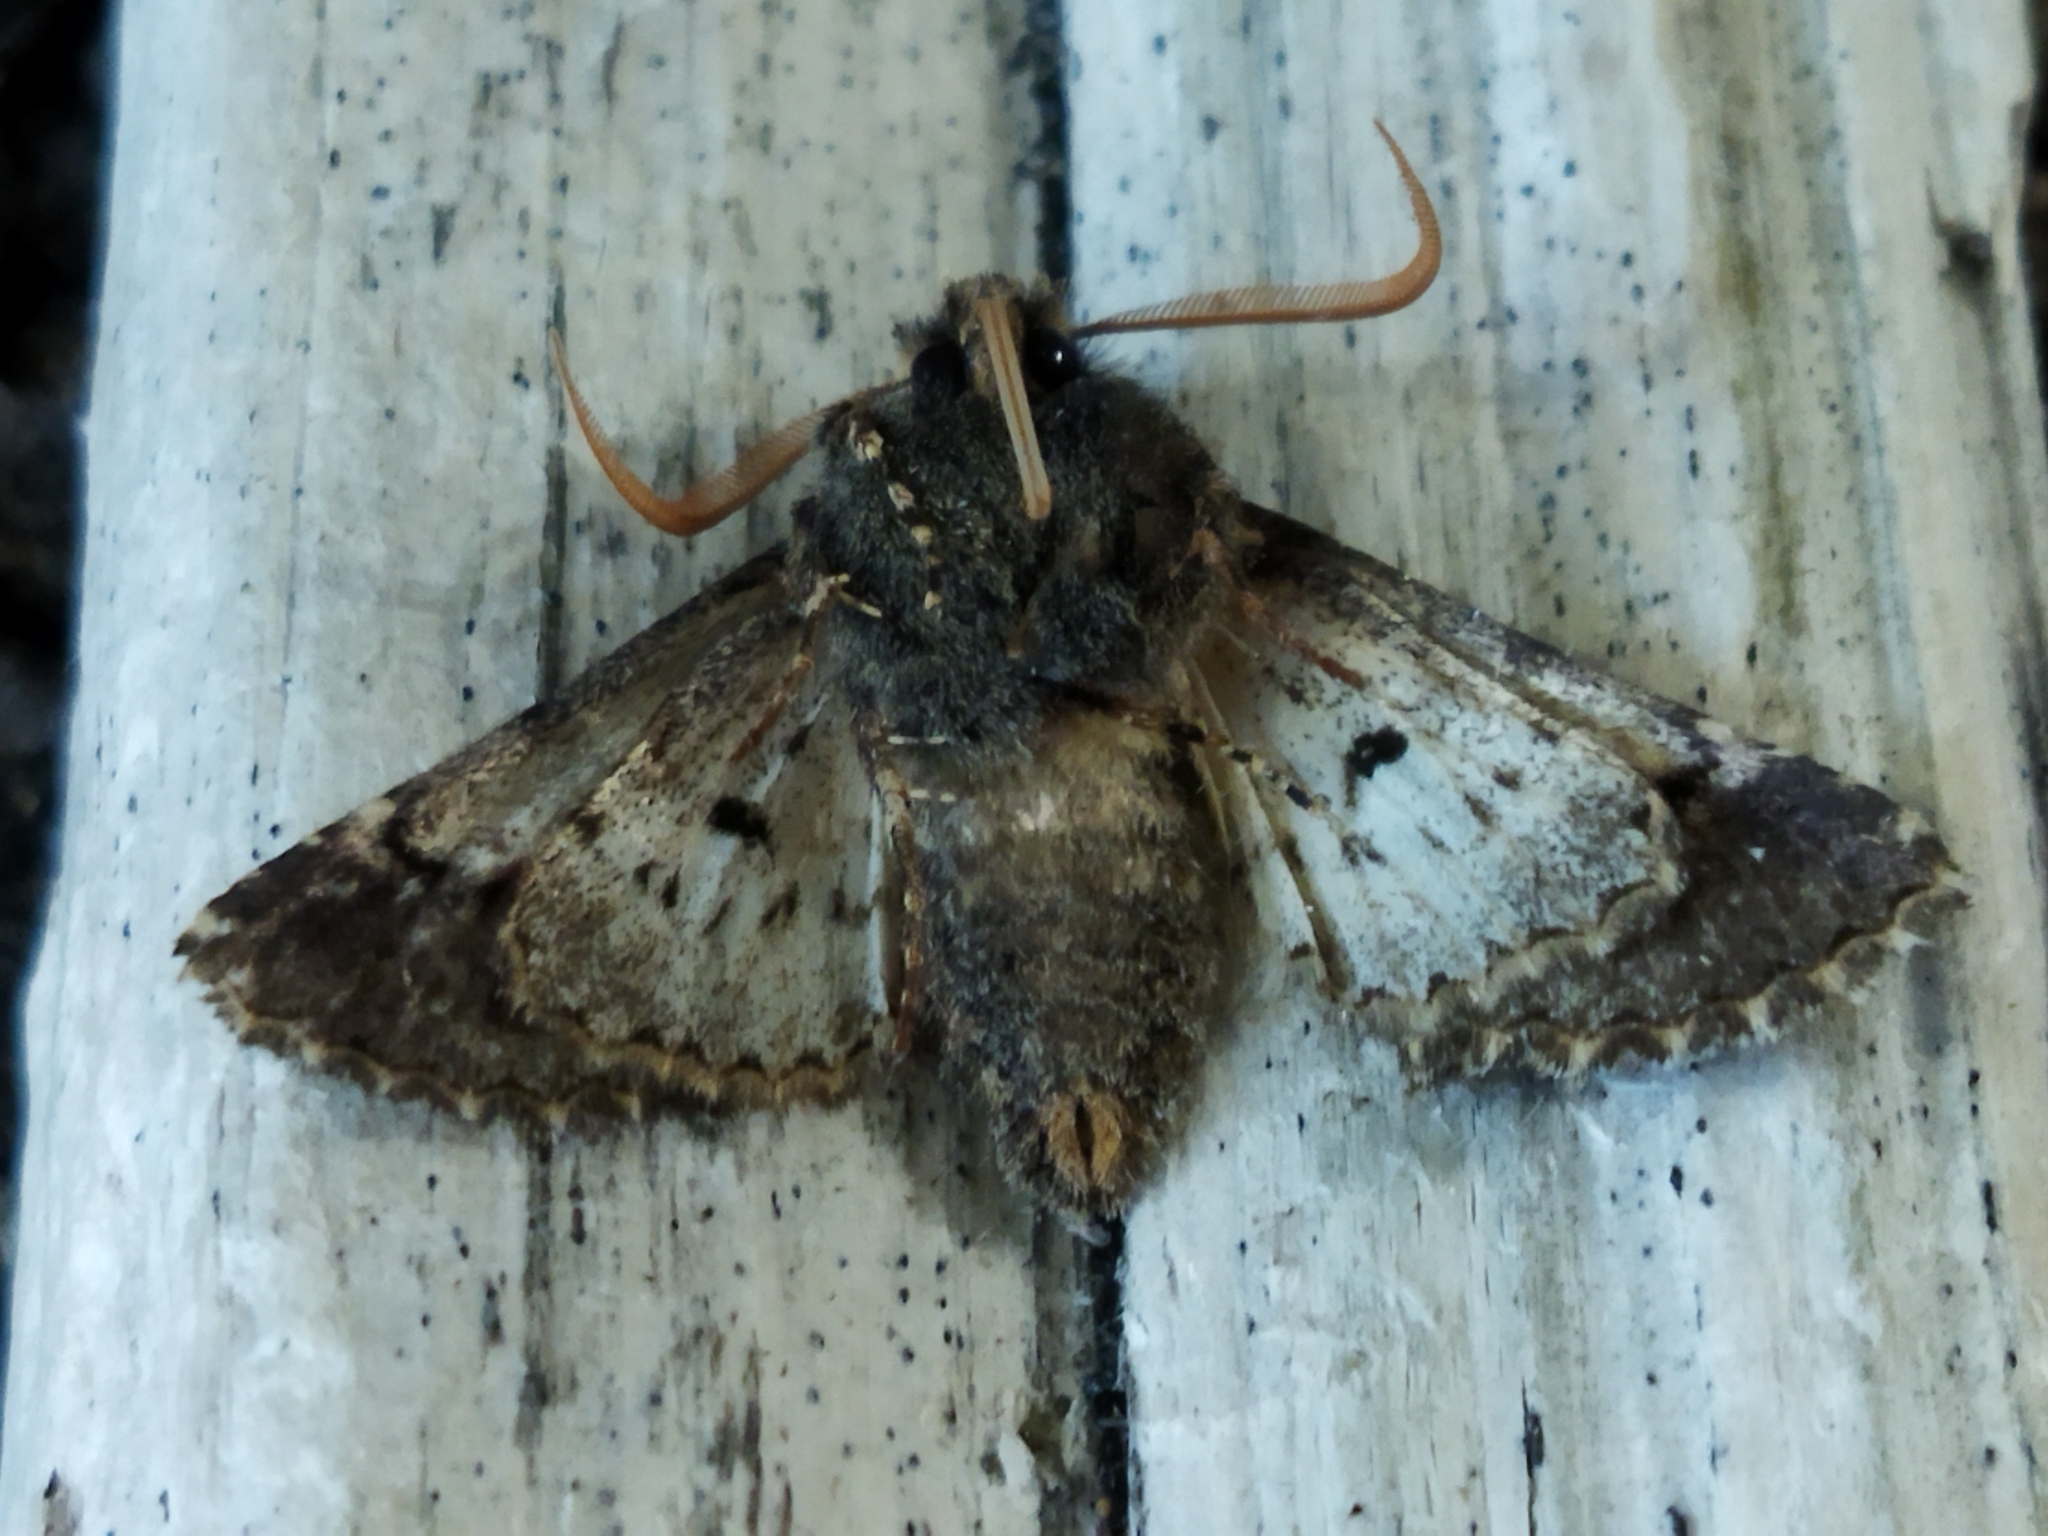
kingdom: Animalia
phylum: Arthropoda
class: Insecta
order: Lepidoptera
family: Noctuidae
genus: Valeria
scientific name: Valeria oleagina
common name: Green-brindled dot
